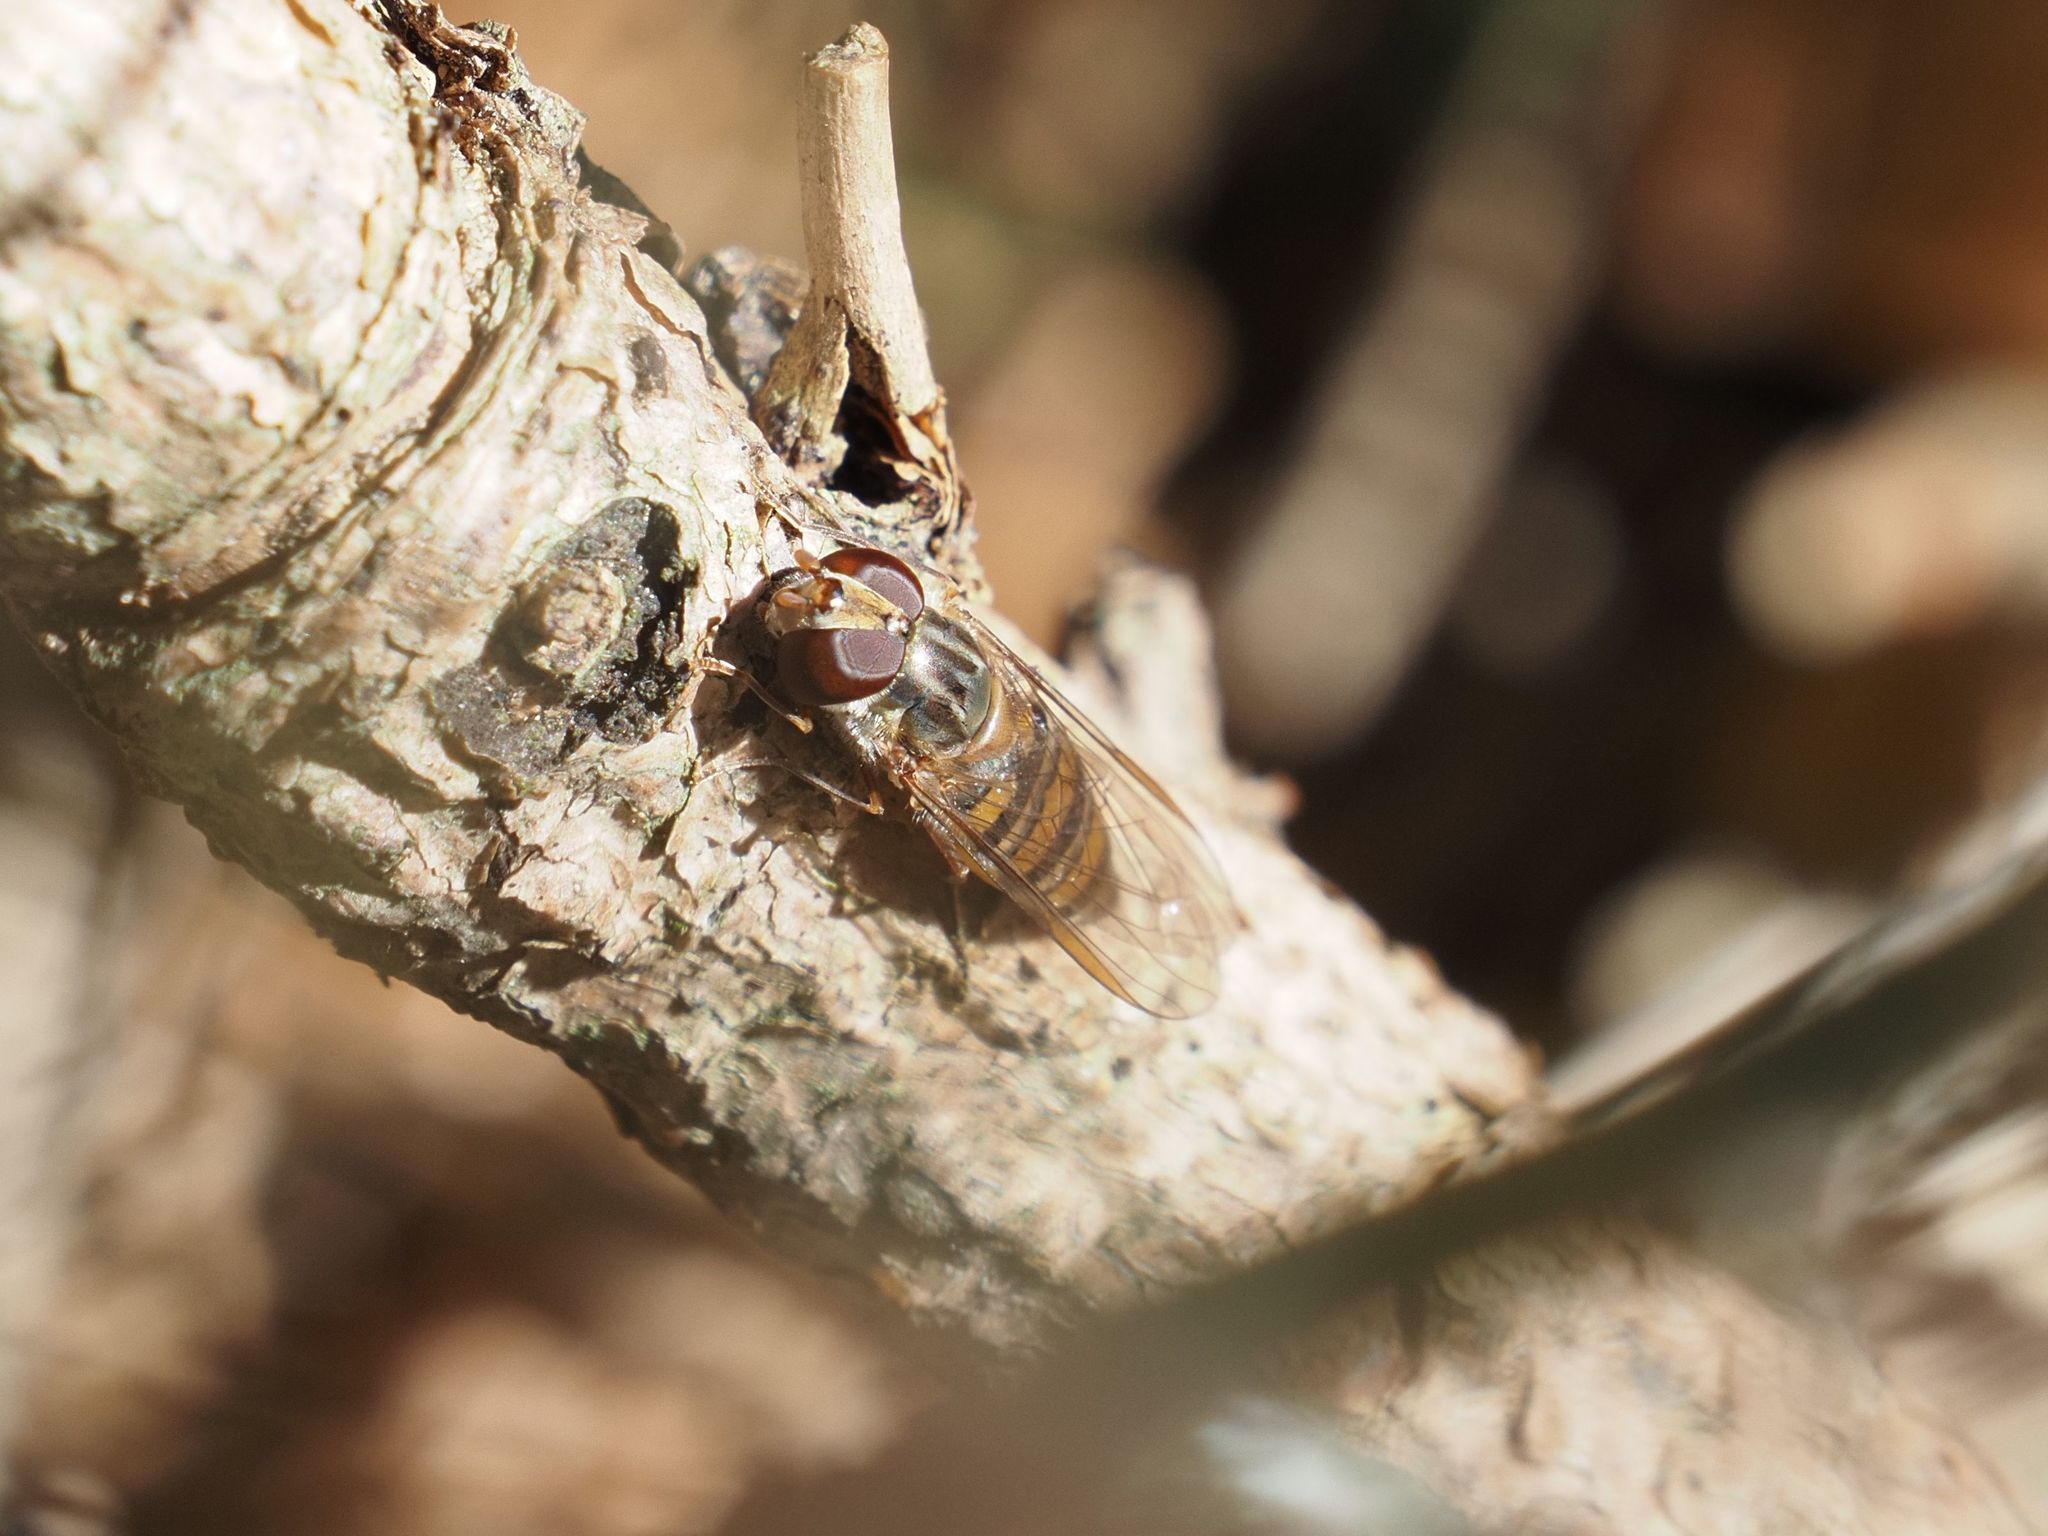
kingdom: Animalia
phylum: Arthropoda
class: Insecta
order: Diptera
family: Syrphidae
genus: Episyrphus
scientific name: Episyrphus balteatus
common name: Marmalade hoverfly
